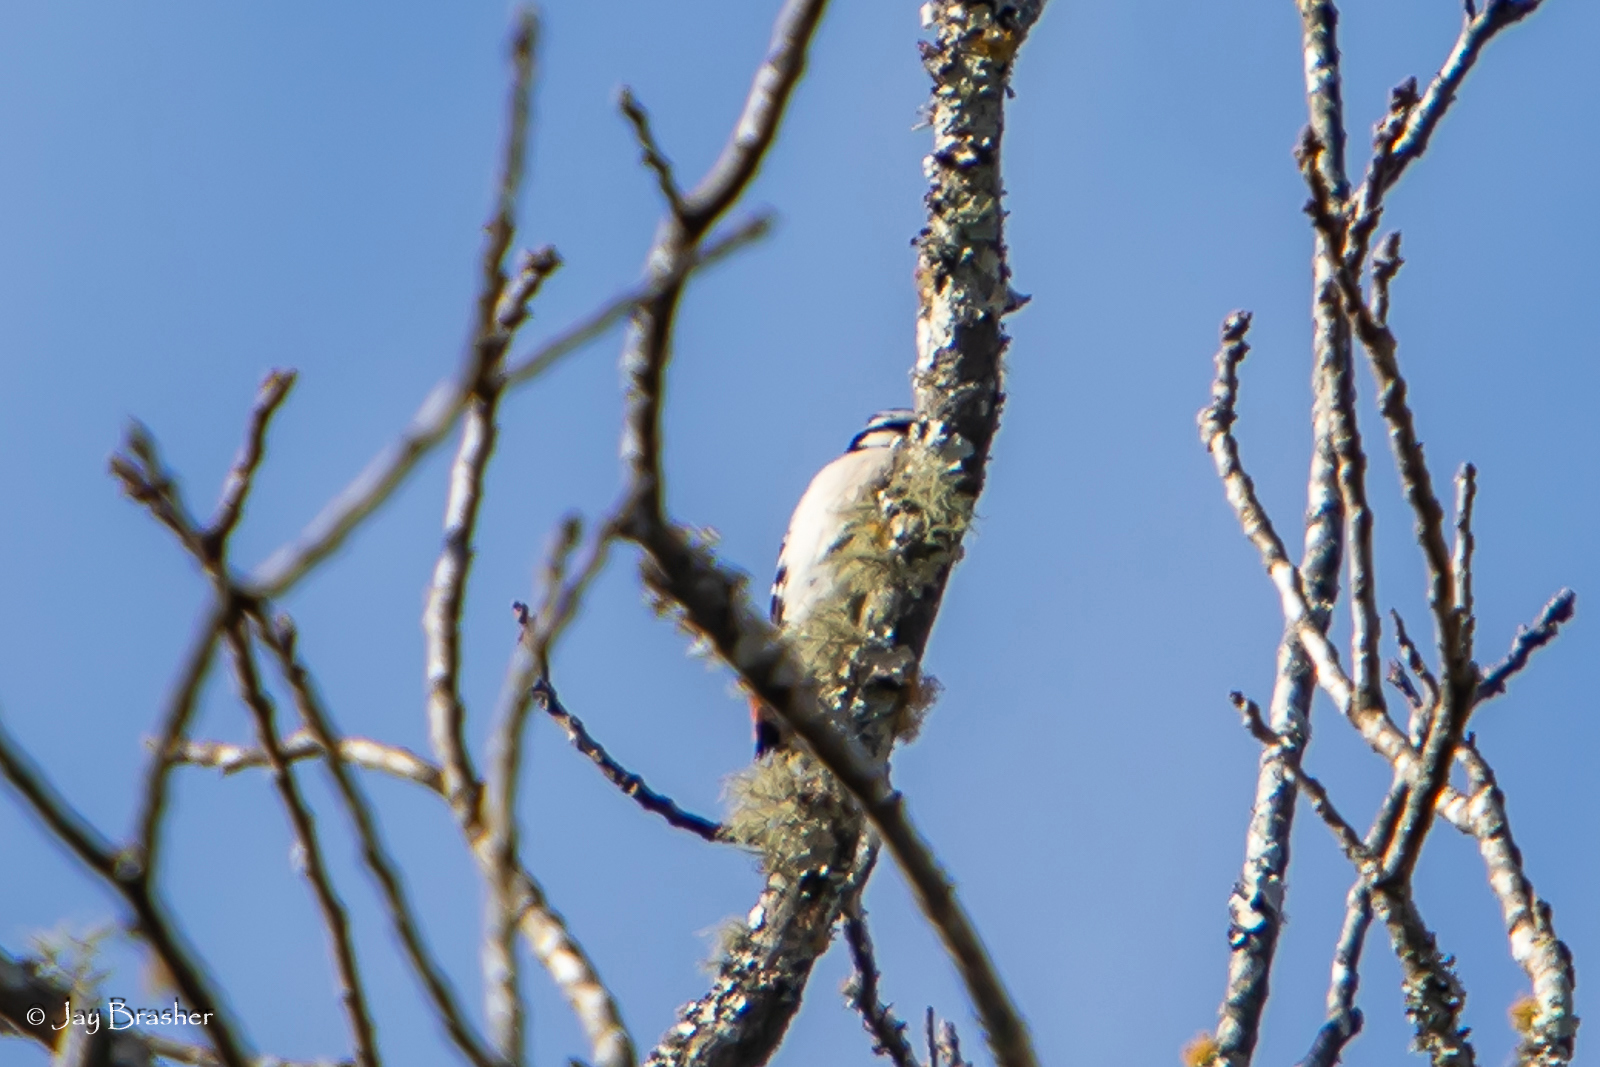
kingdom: Animalia
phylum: Chordata
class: Aves
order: Piciformes
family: Picidae
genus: Dryobates
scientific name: Dryobates
